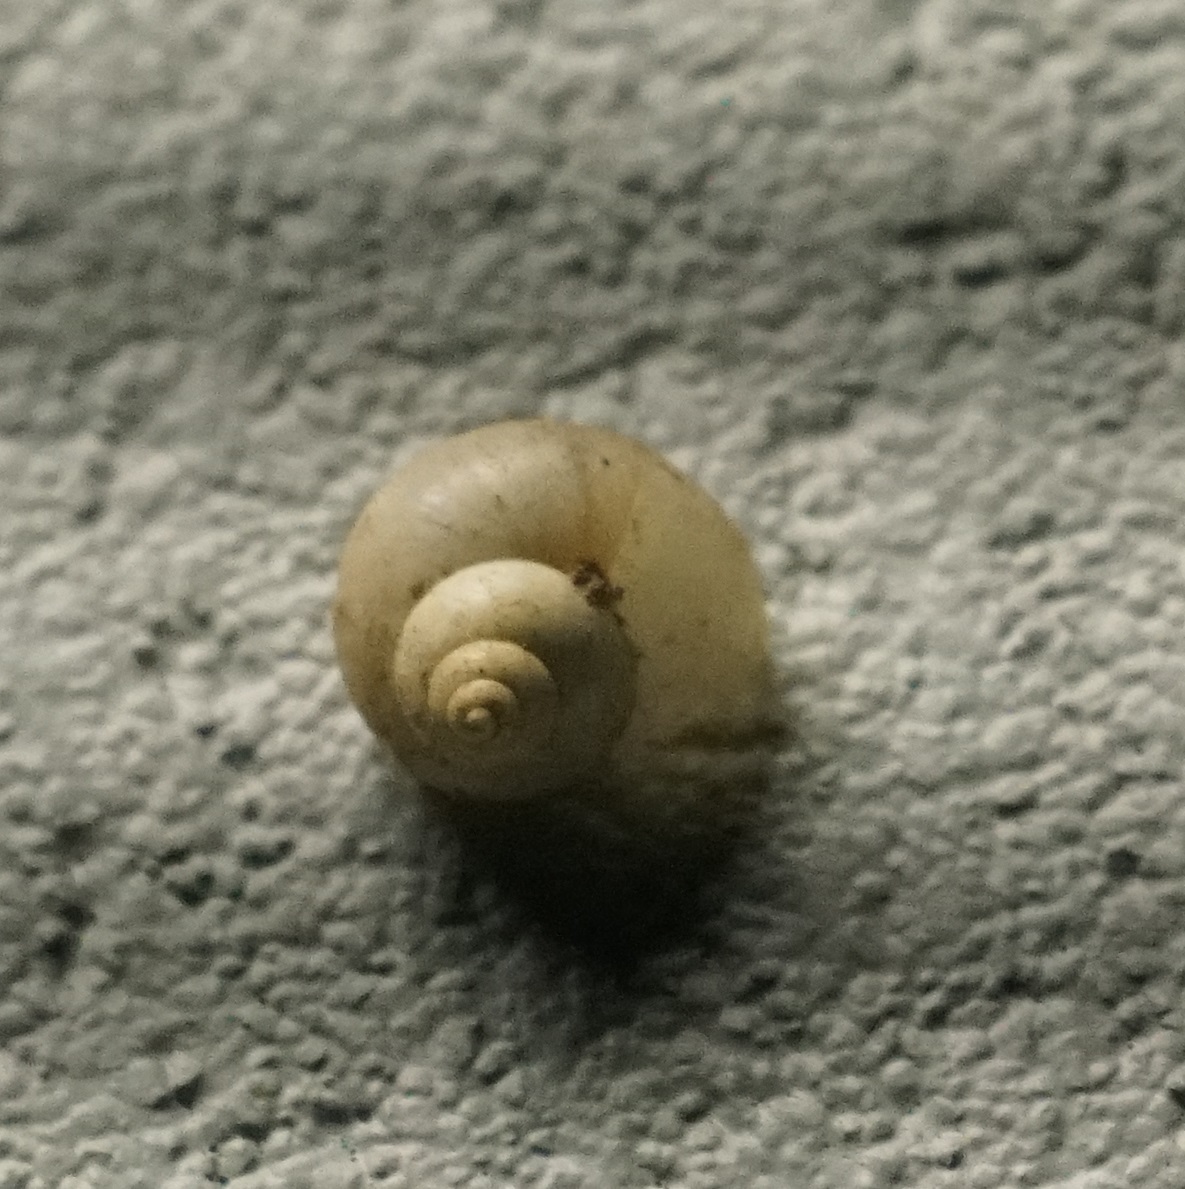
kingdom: Animalia
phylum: Mollusca
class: Gastropoda
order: Architaenioglossa
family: Cyclophoridae
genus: Leptopoma
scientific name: Leptopoma perlucidum
